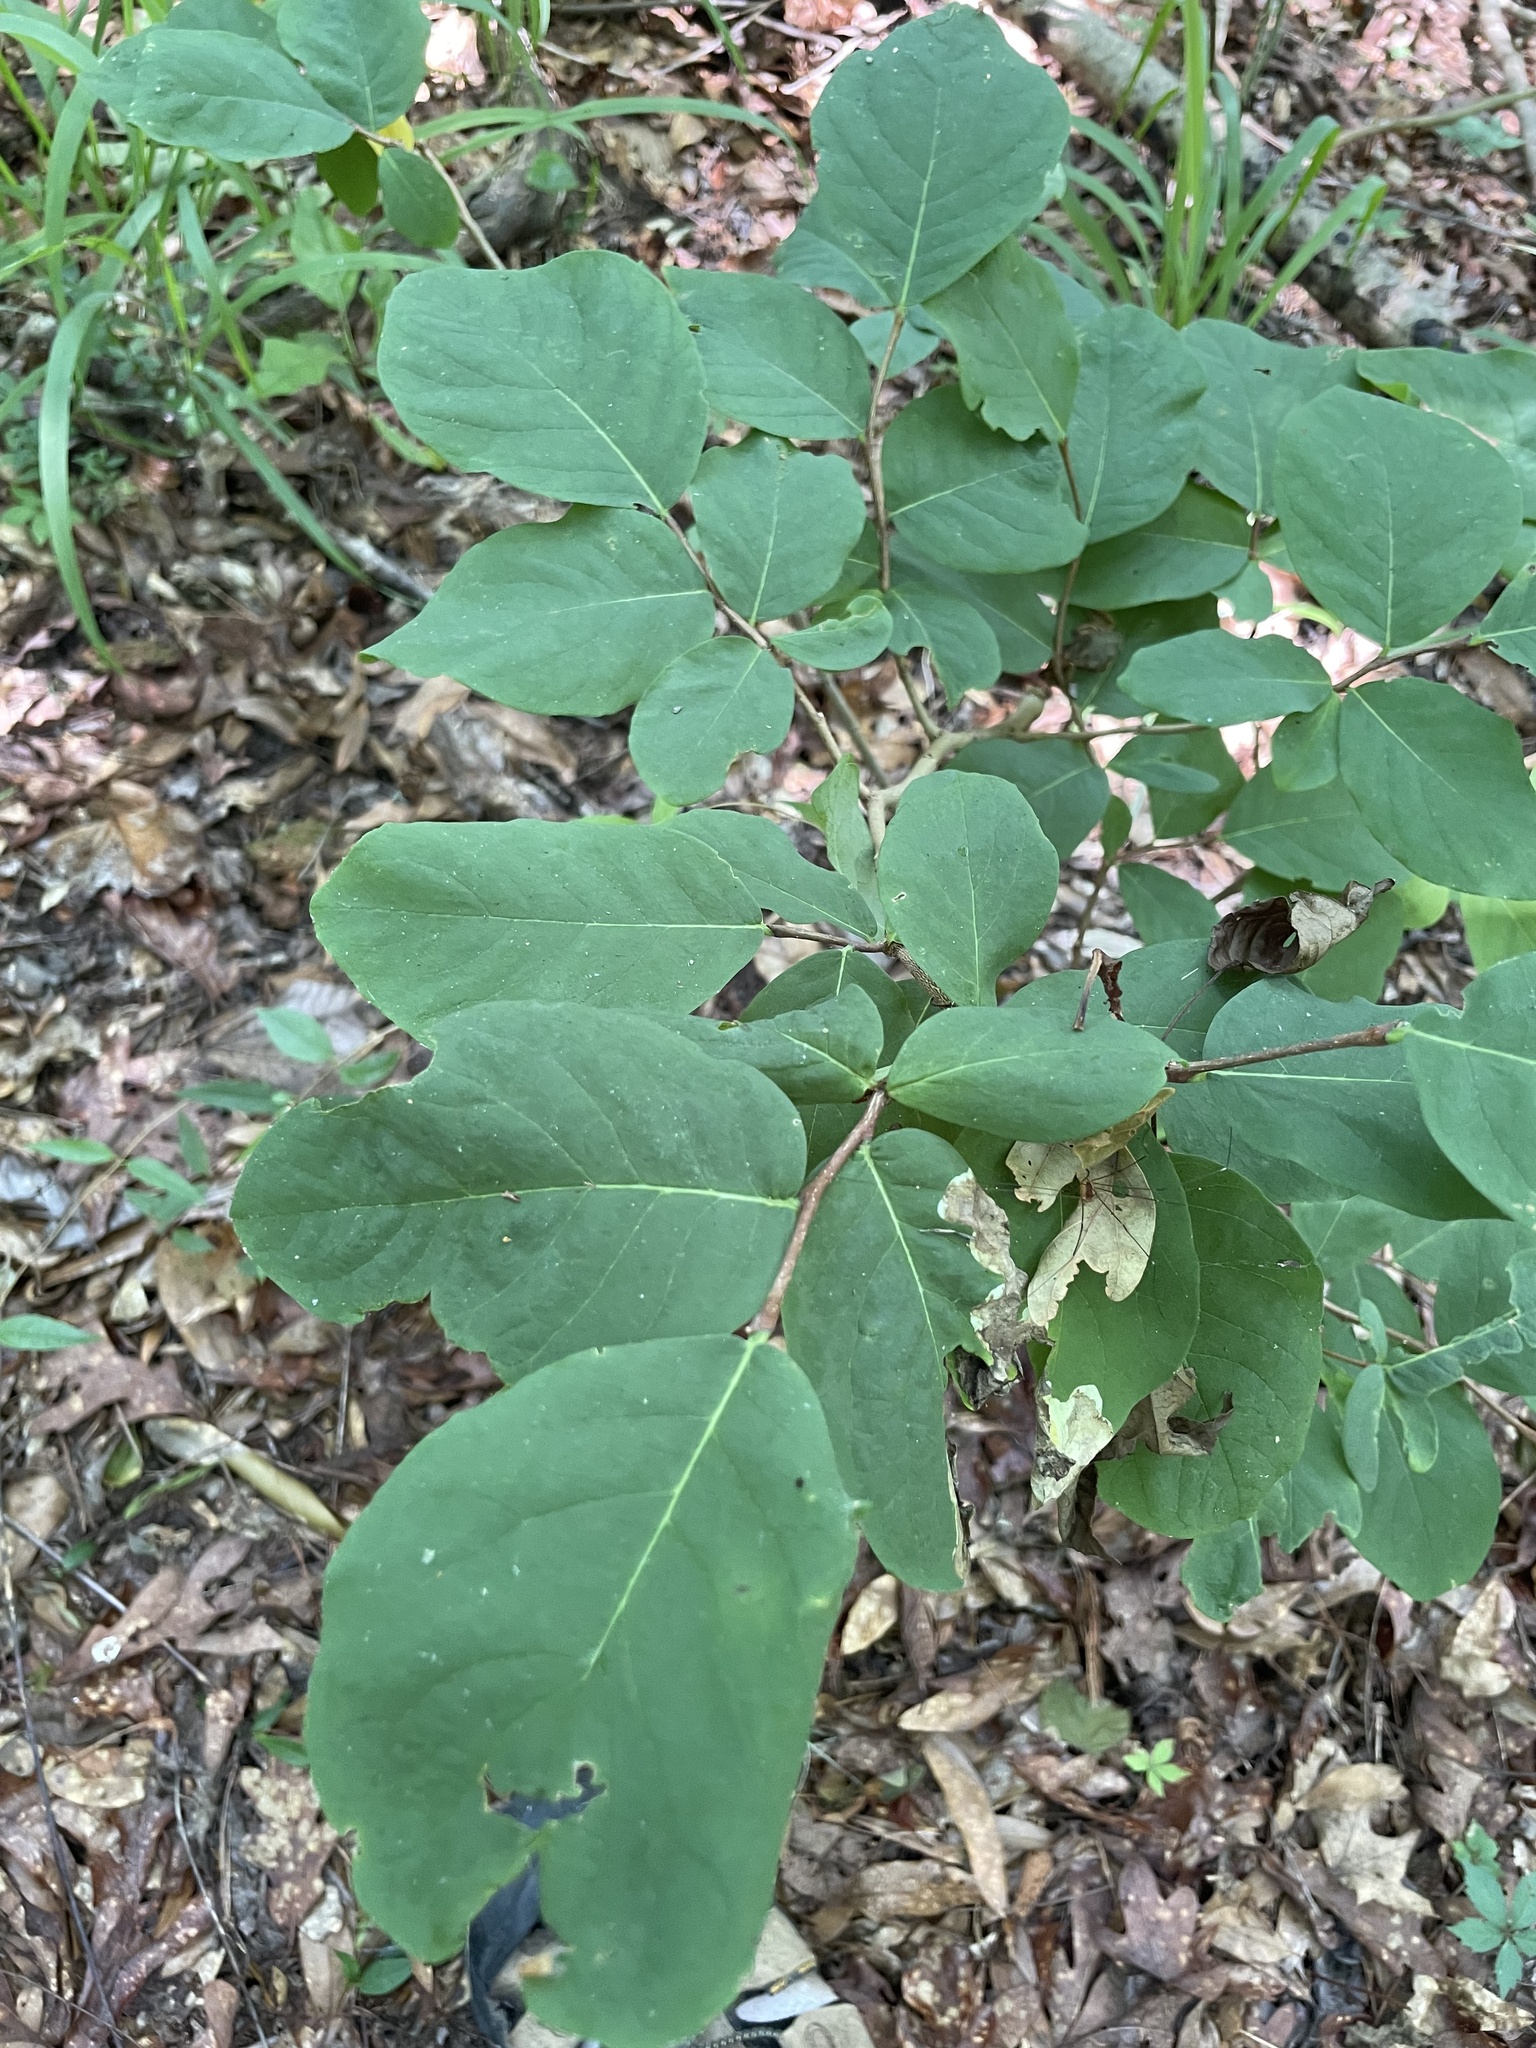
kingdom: Plantae
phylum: Tracheophyta
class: Magnoliopsida
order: Malvales
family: Thymelaeaceae
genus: Dirca
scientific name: Dirca palustris
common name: Leatherwood
